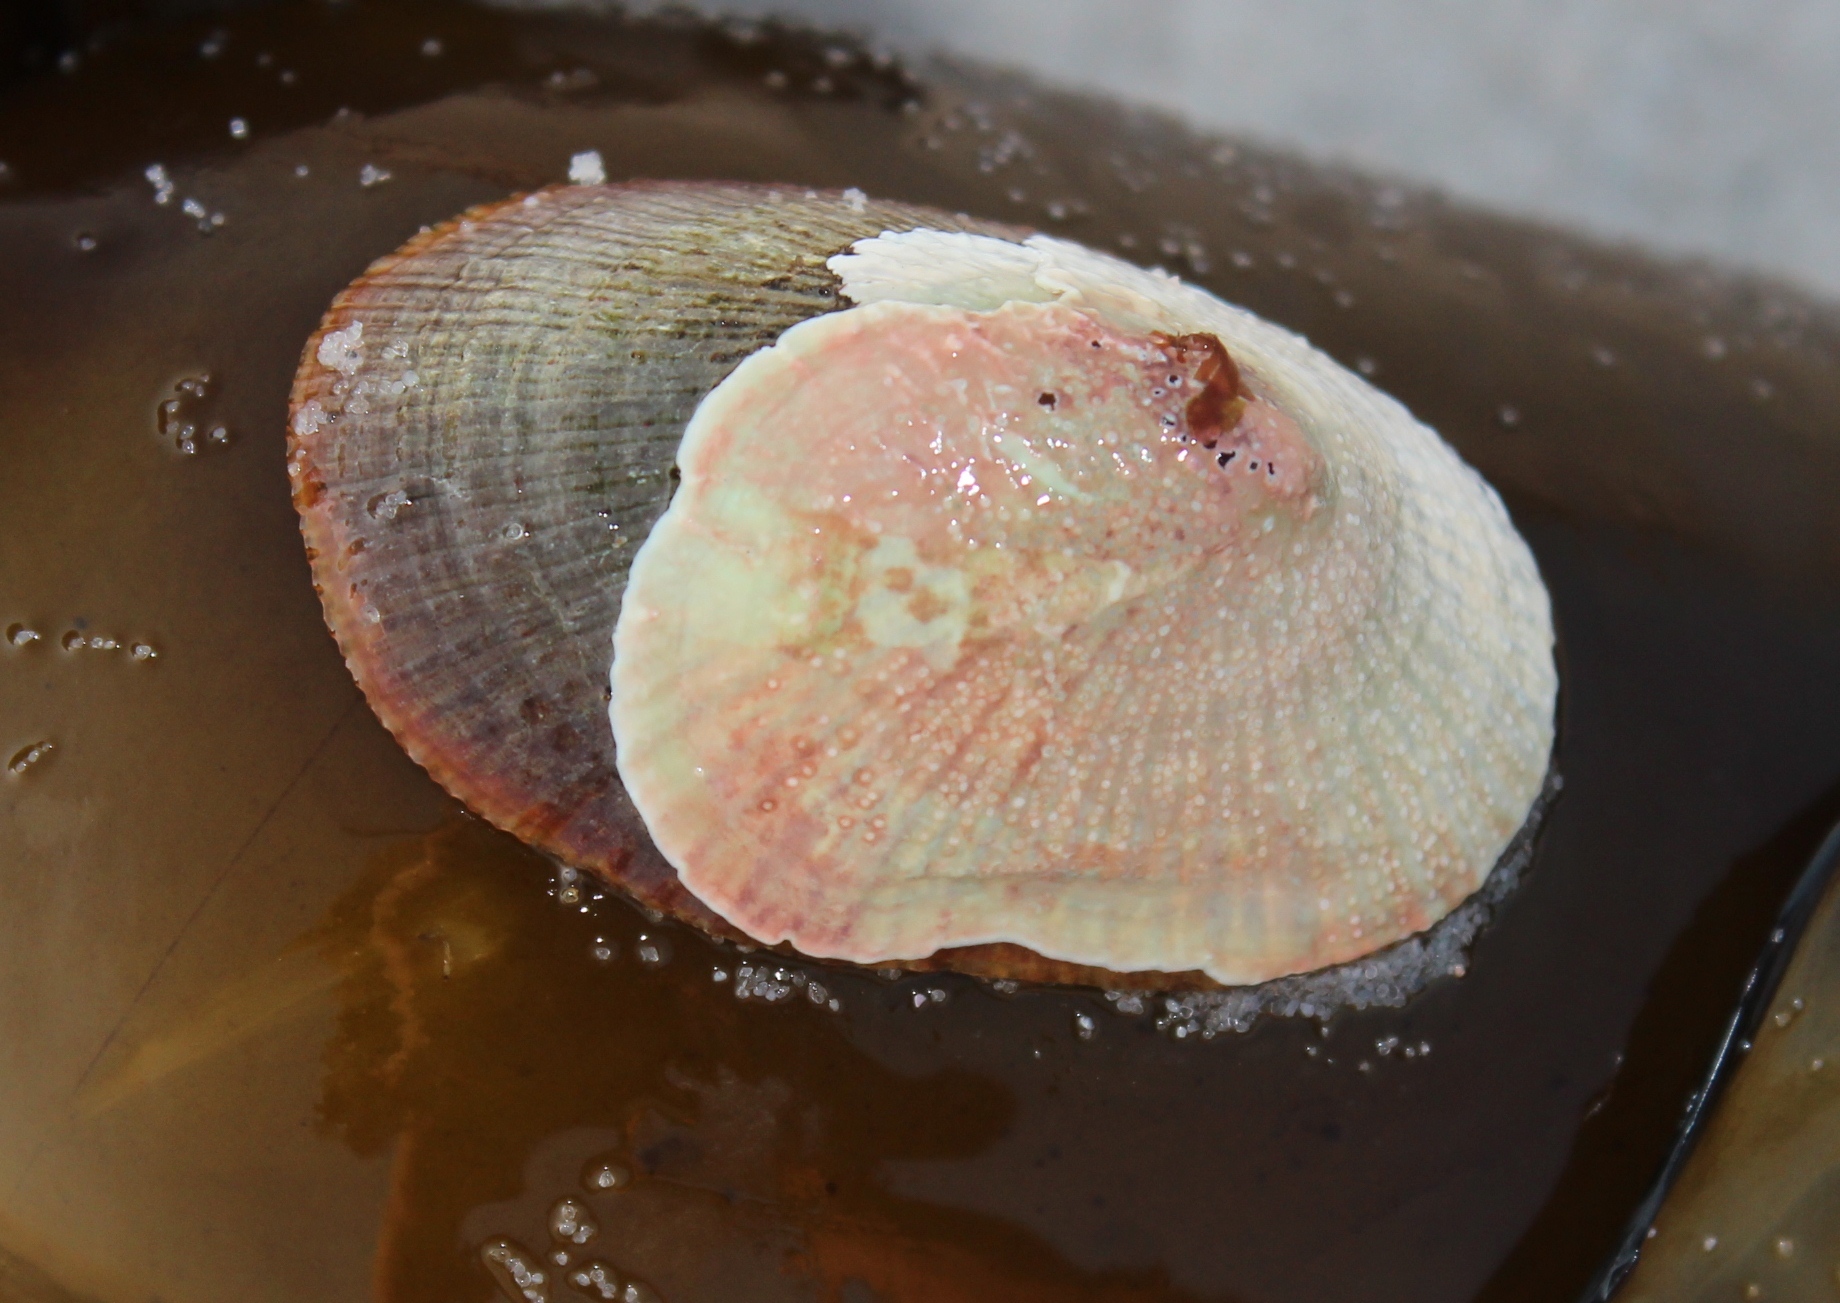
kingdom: Animalia
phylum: Mollusca
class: Gastropoda
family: Patellidae
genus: Cymbula
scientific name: Cymbula compressa
